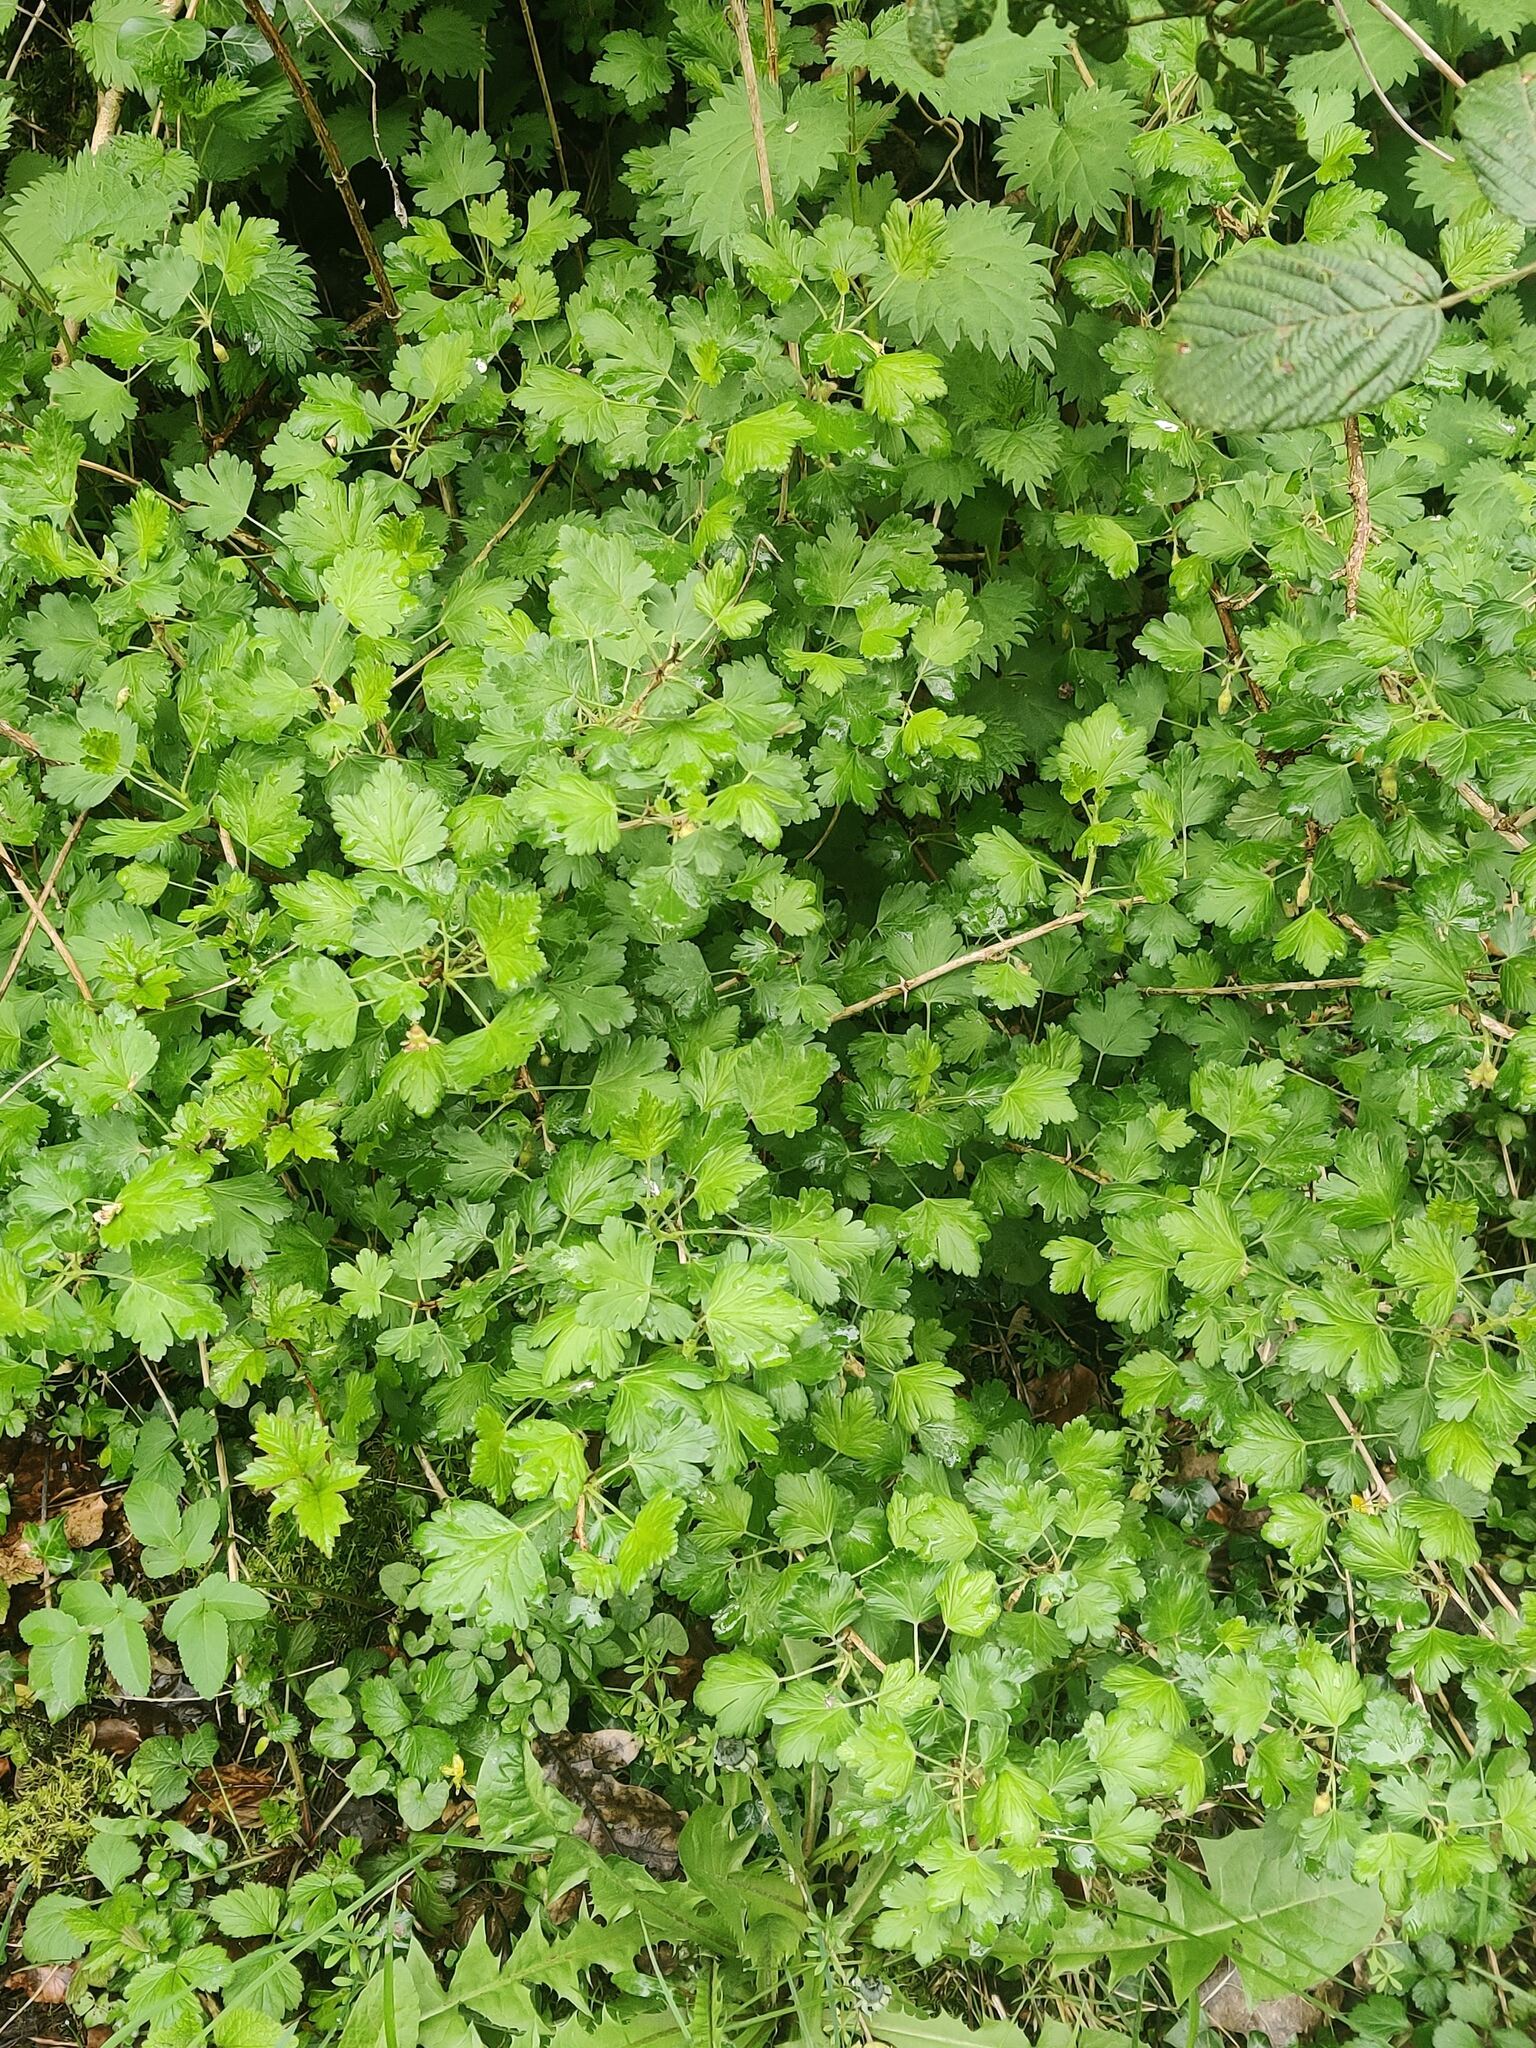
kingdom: Plantae
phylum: Tracheophyta
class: Magnoliopsida
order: Saxifragales
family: Grossulariaceae
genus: Ribes
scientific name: Ribes uva-crispa
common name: Gooseberry
